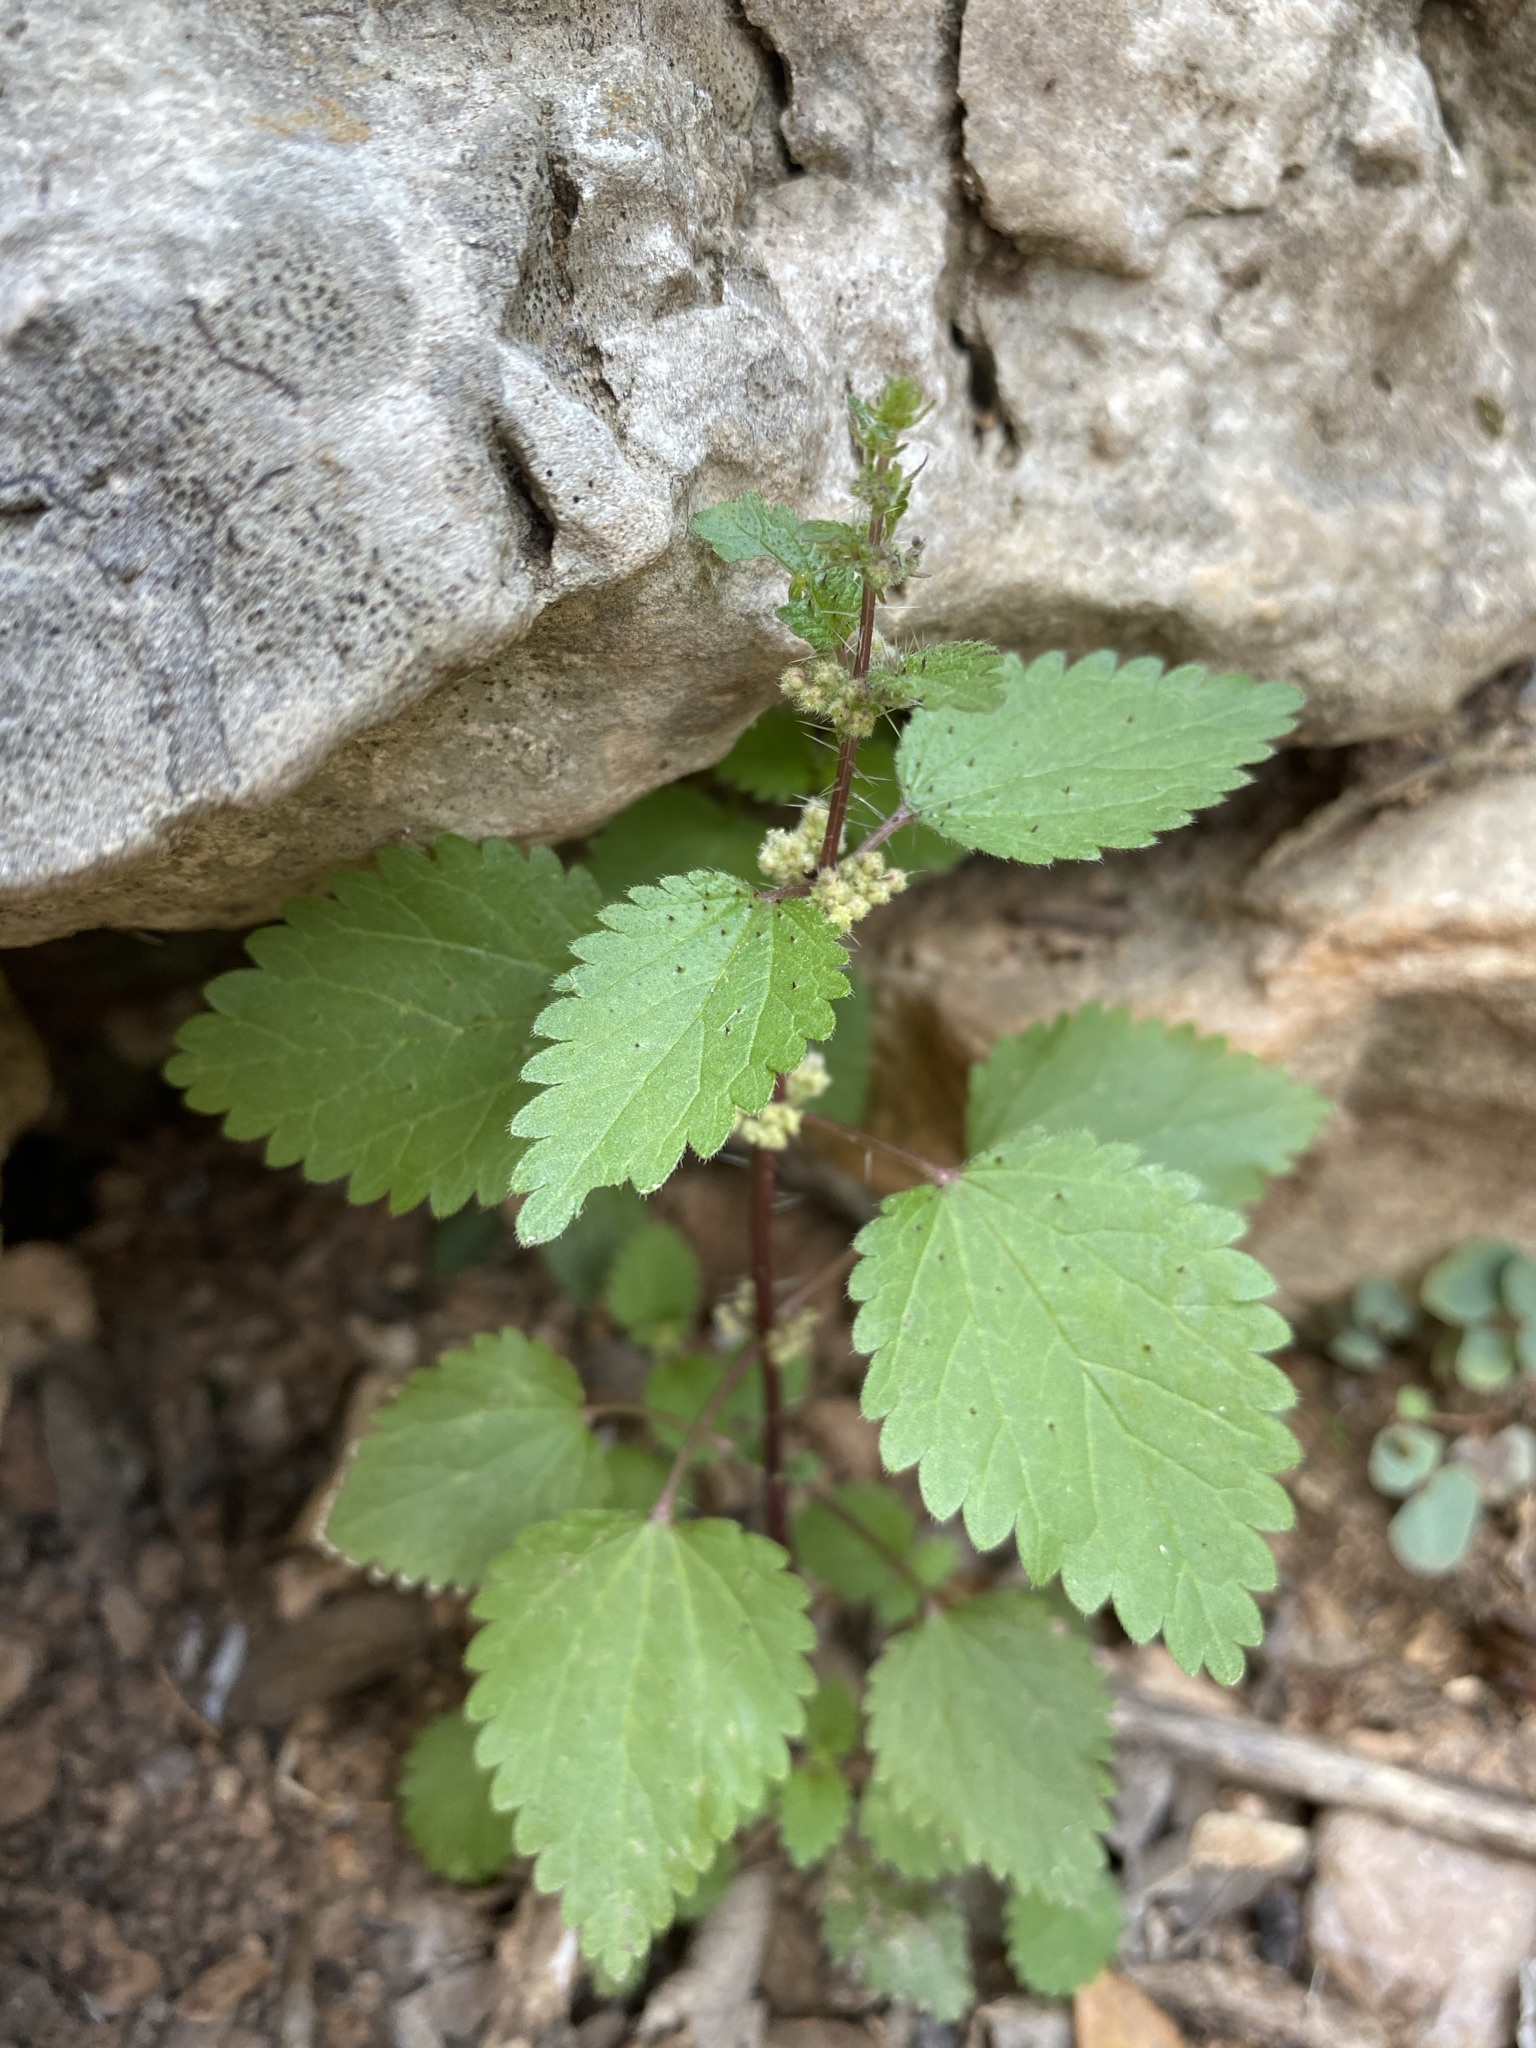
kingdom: Plantae
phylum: Tracheophyta
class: Magnoliopsida
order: Rosales
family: Urticaceae
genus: Urtica
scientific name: Urtica chamaedryoides
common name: Heart-leaf nettle
